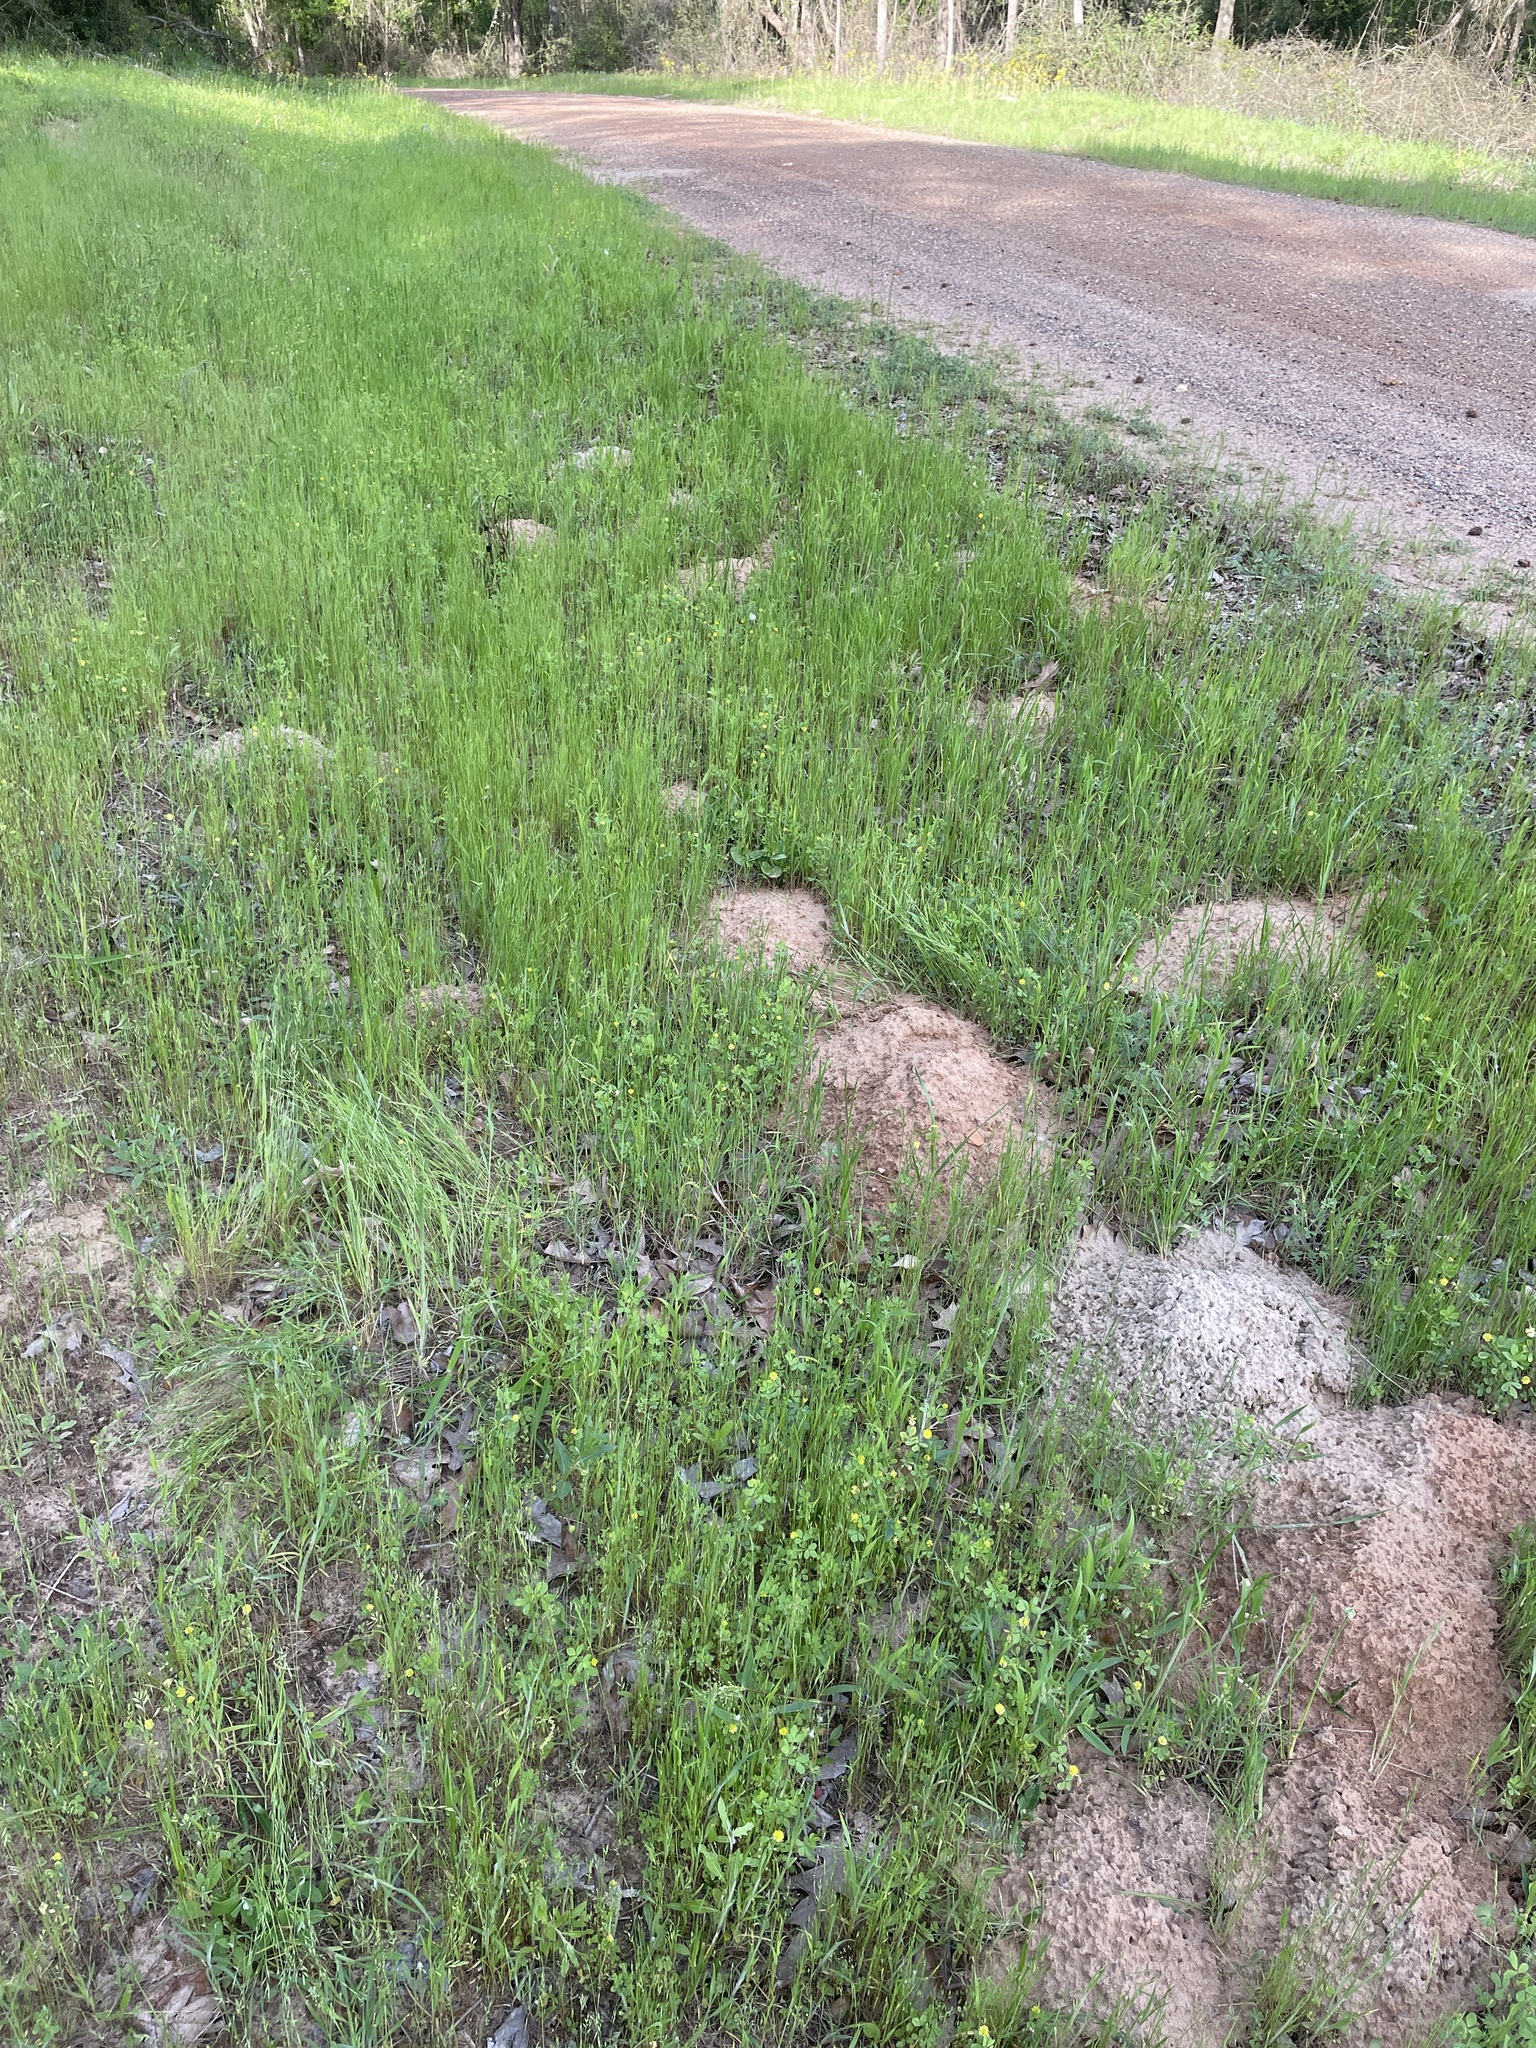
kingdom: Animalia
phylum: Chordata
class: Mammalia
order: Rodentia
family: Geomyidae
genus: Geomys
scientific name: Geomys breviceps
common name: Baird's pocket gopher
